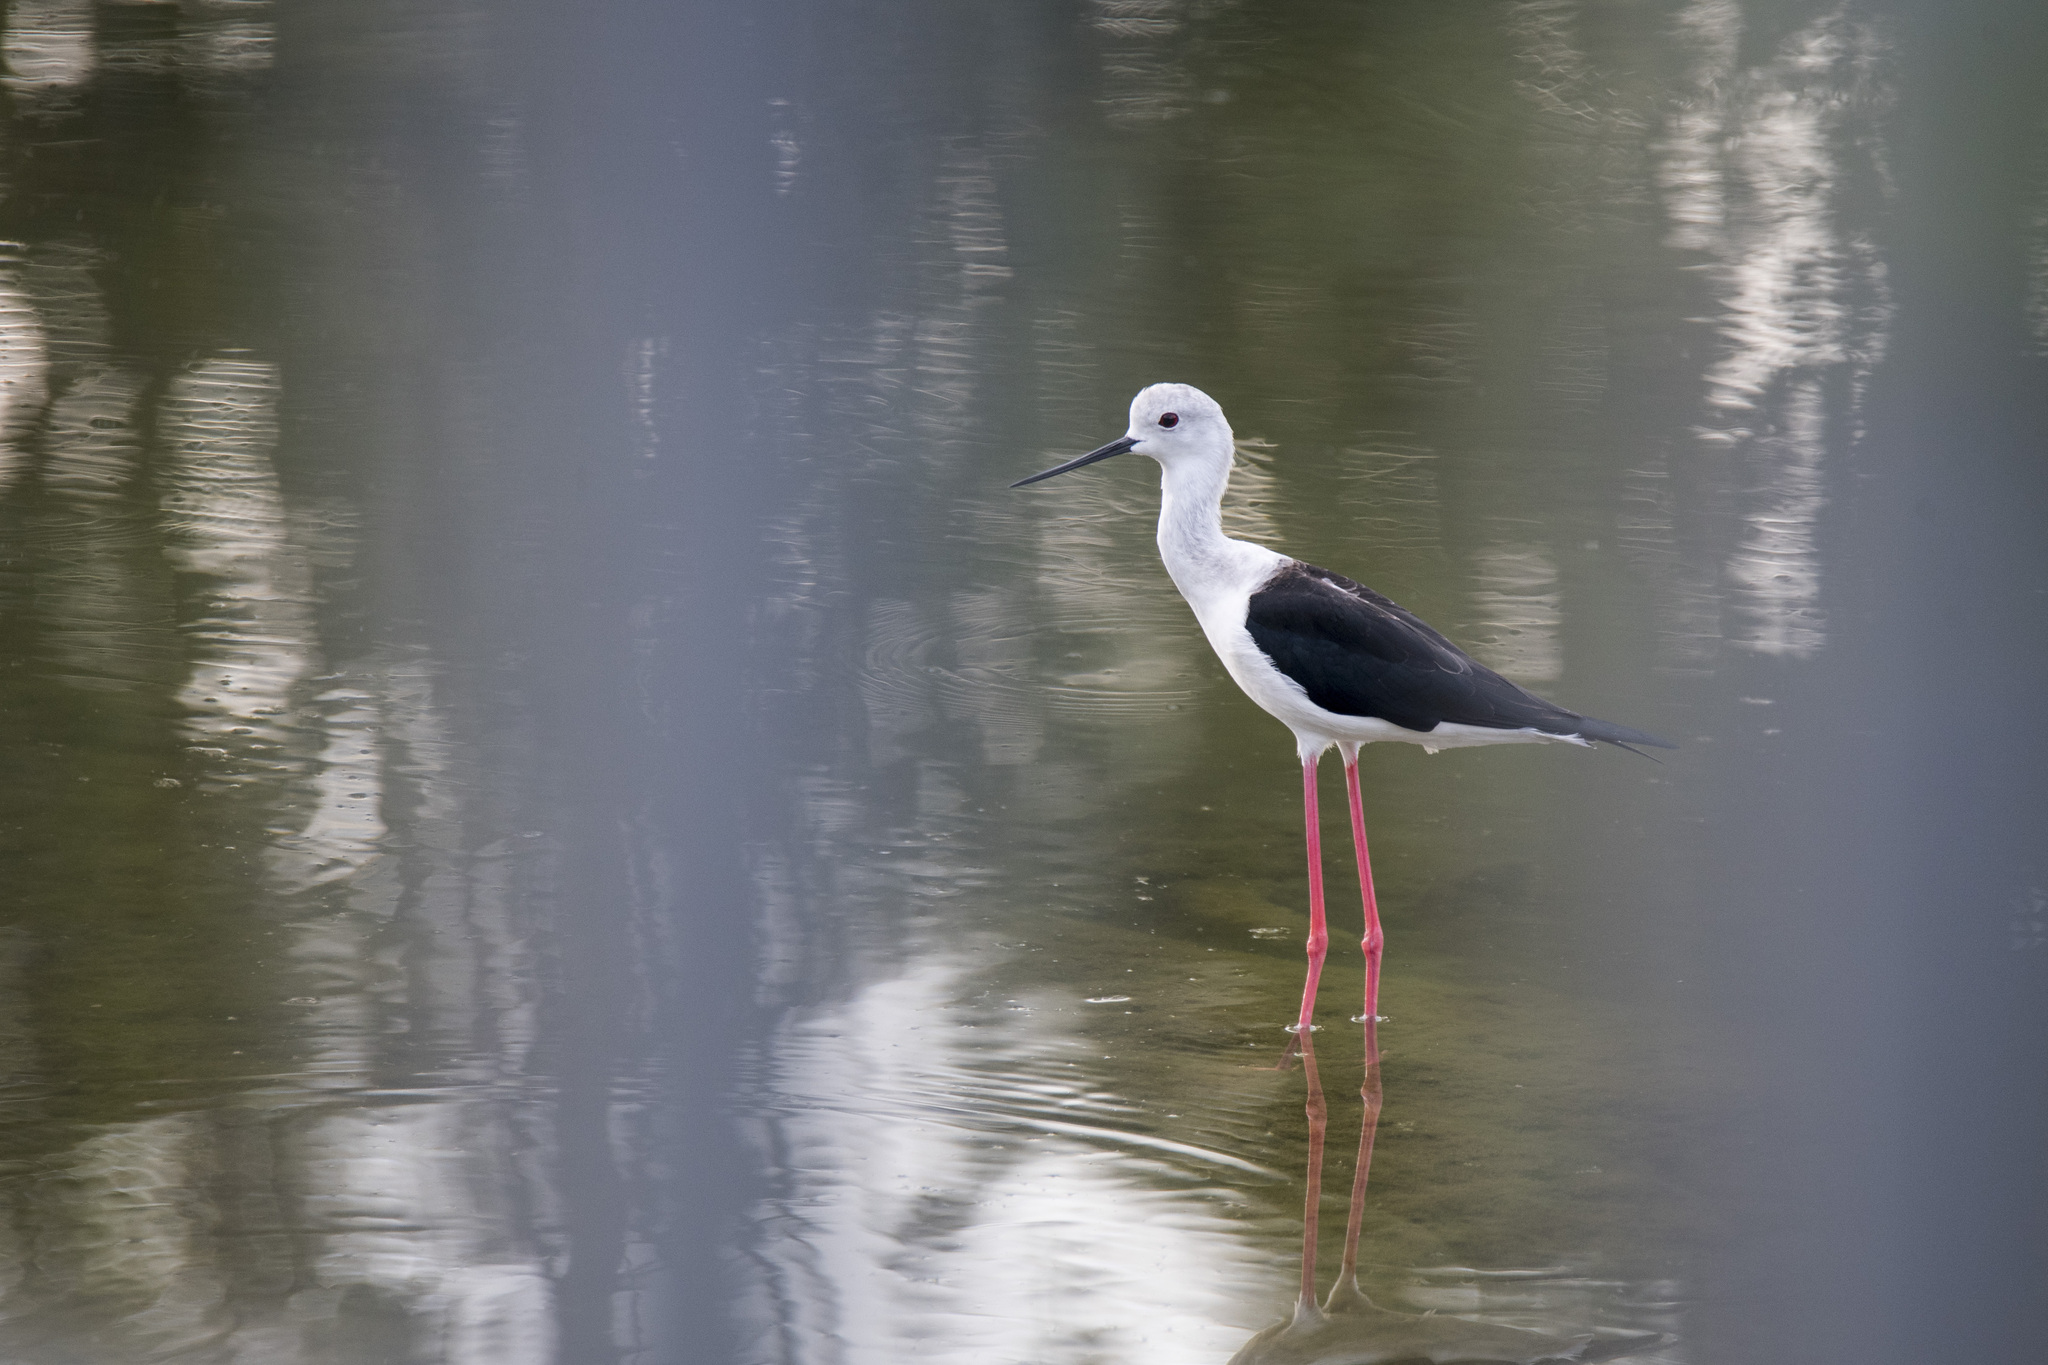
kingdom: Animalia
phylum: Chordata
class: Aves
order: Charadriiformes
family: Recurvirostridae
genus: Himantopus
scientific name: Himantopus himantopus
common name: Black-winged stilt
